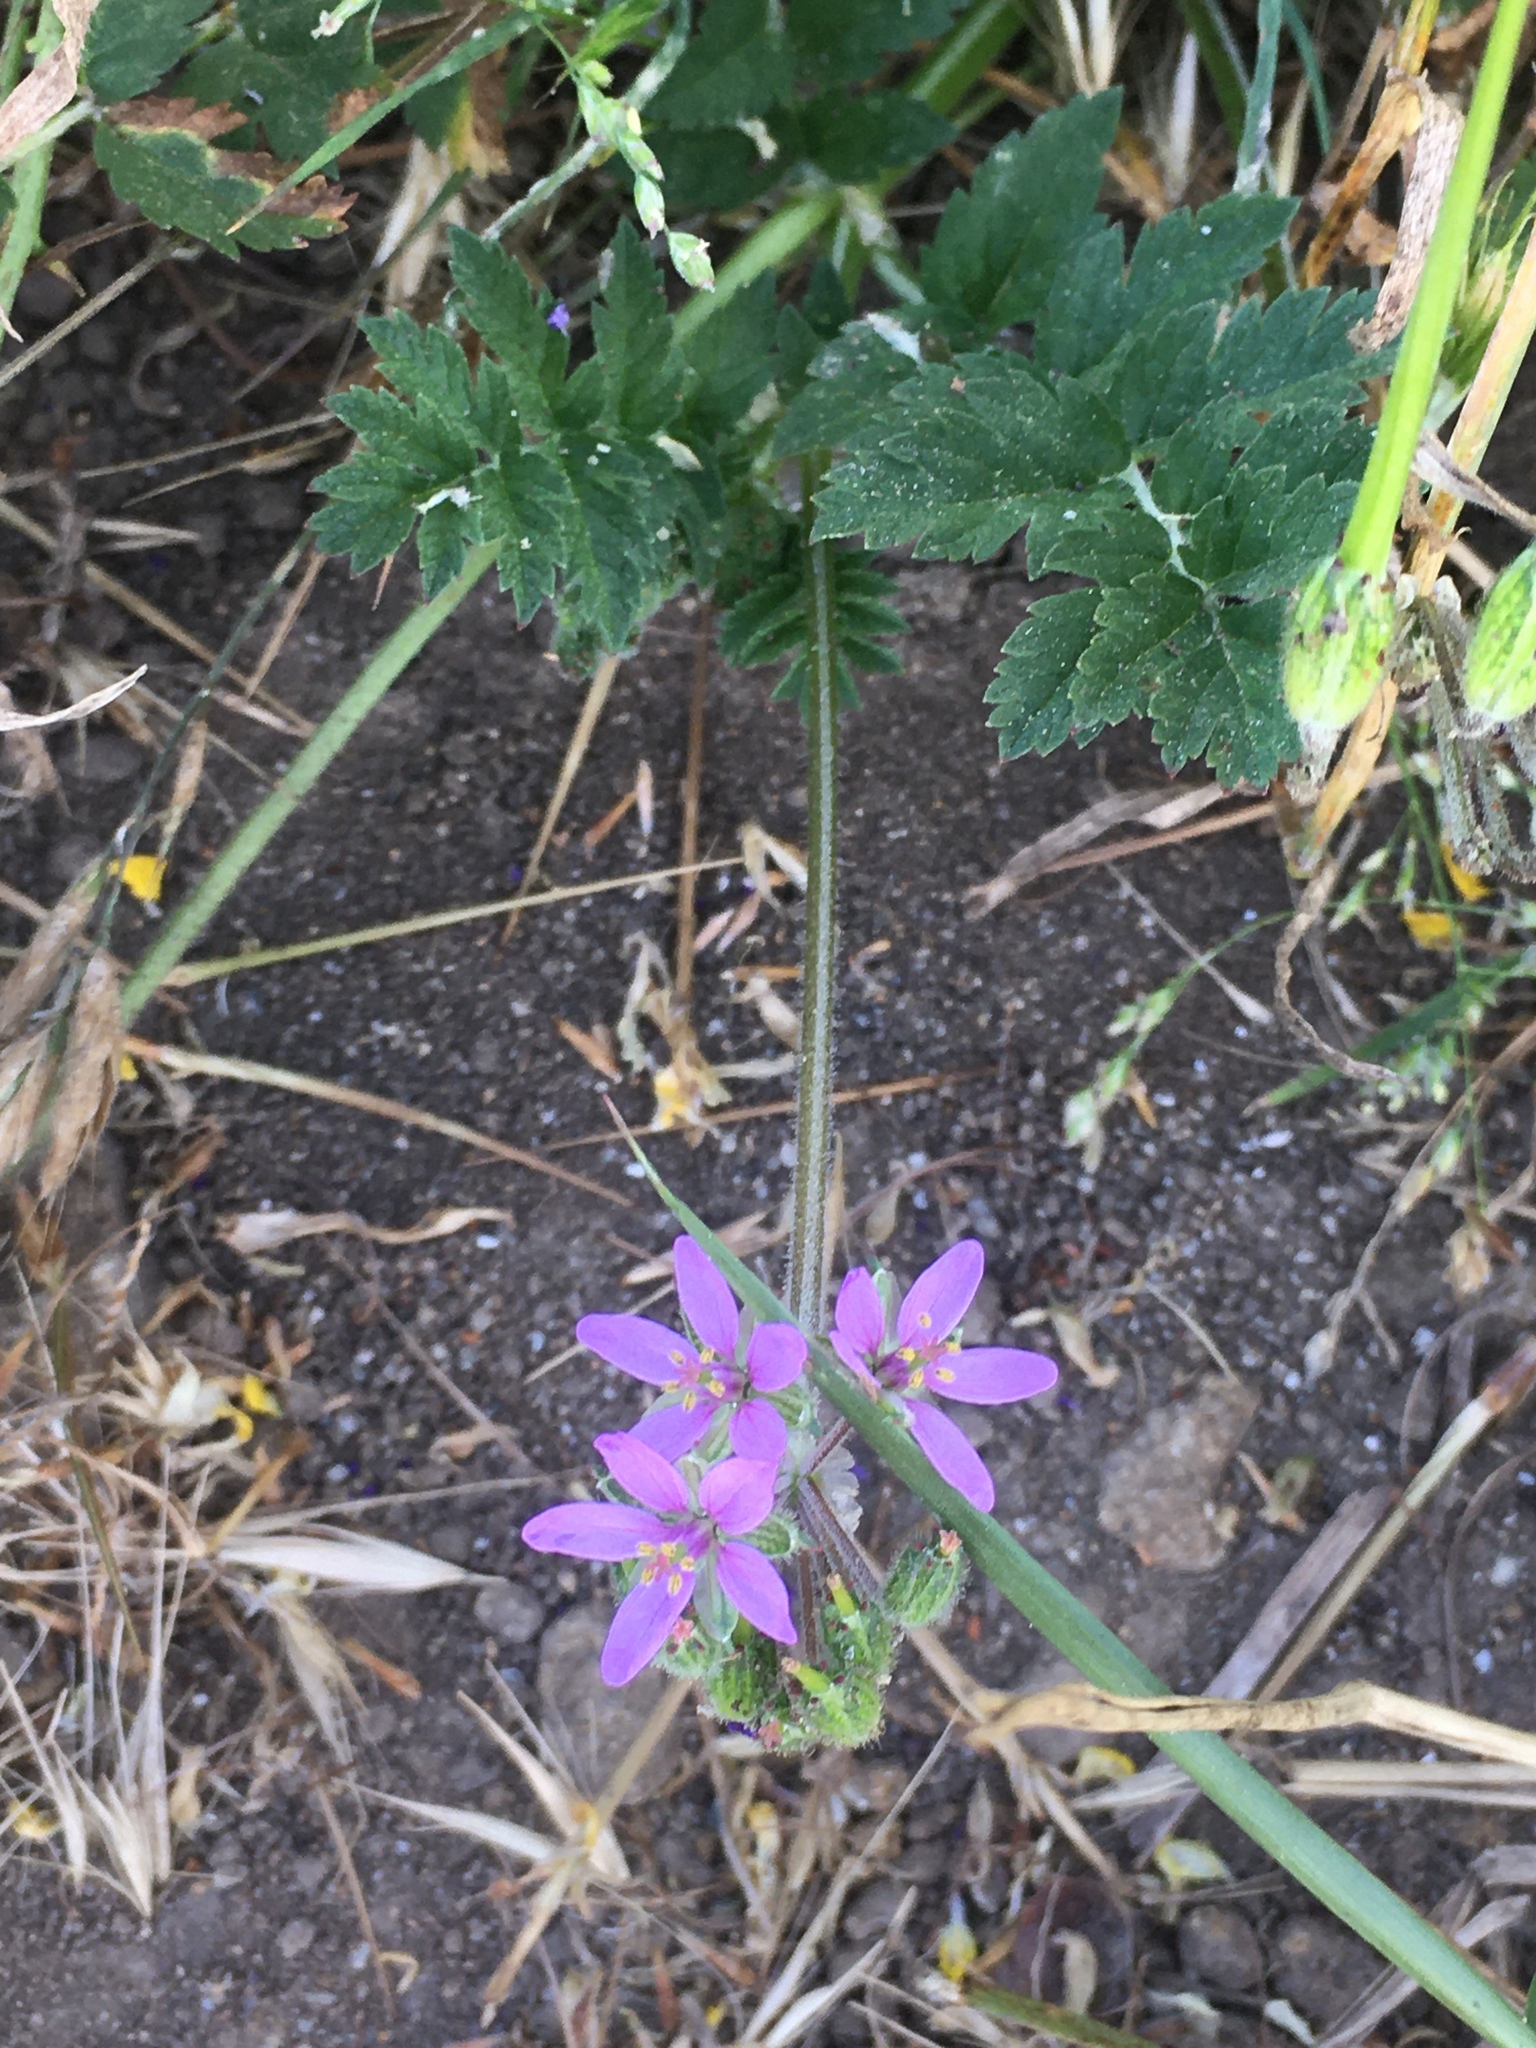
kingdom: Plantae
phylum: Tracheophyta
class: Magnoliopsida
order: Geraniales
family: Geraniaceae
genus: Erodium
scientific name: Erodium moschatum
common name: Musk stork's-bill
